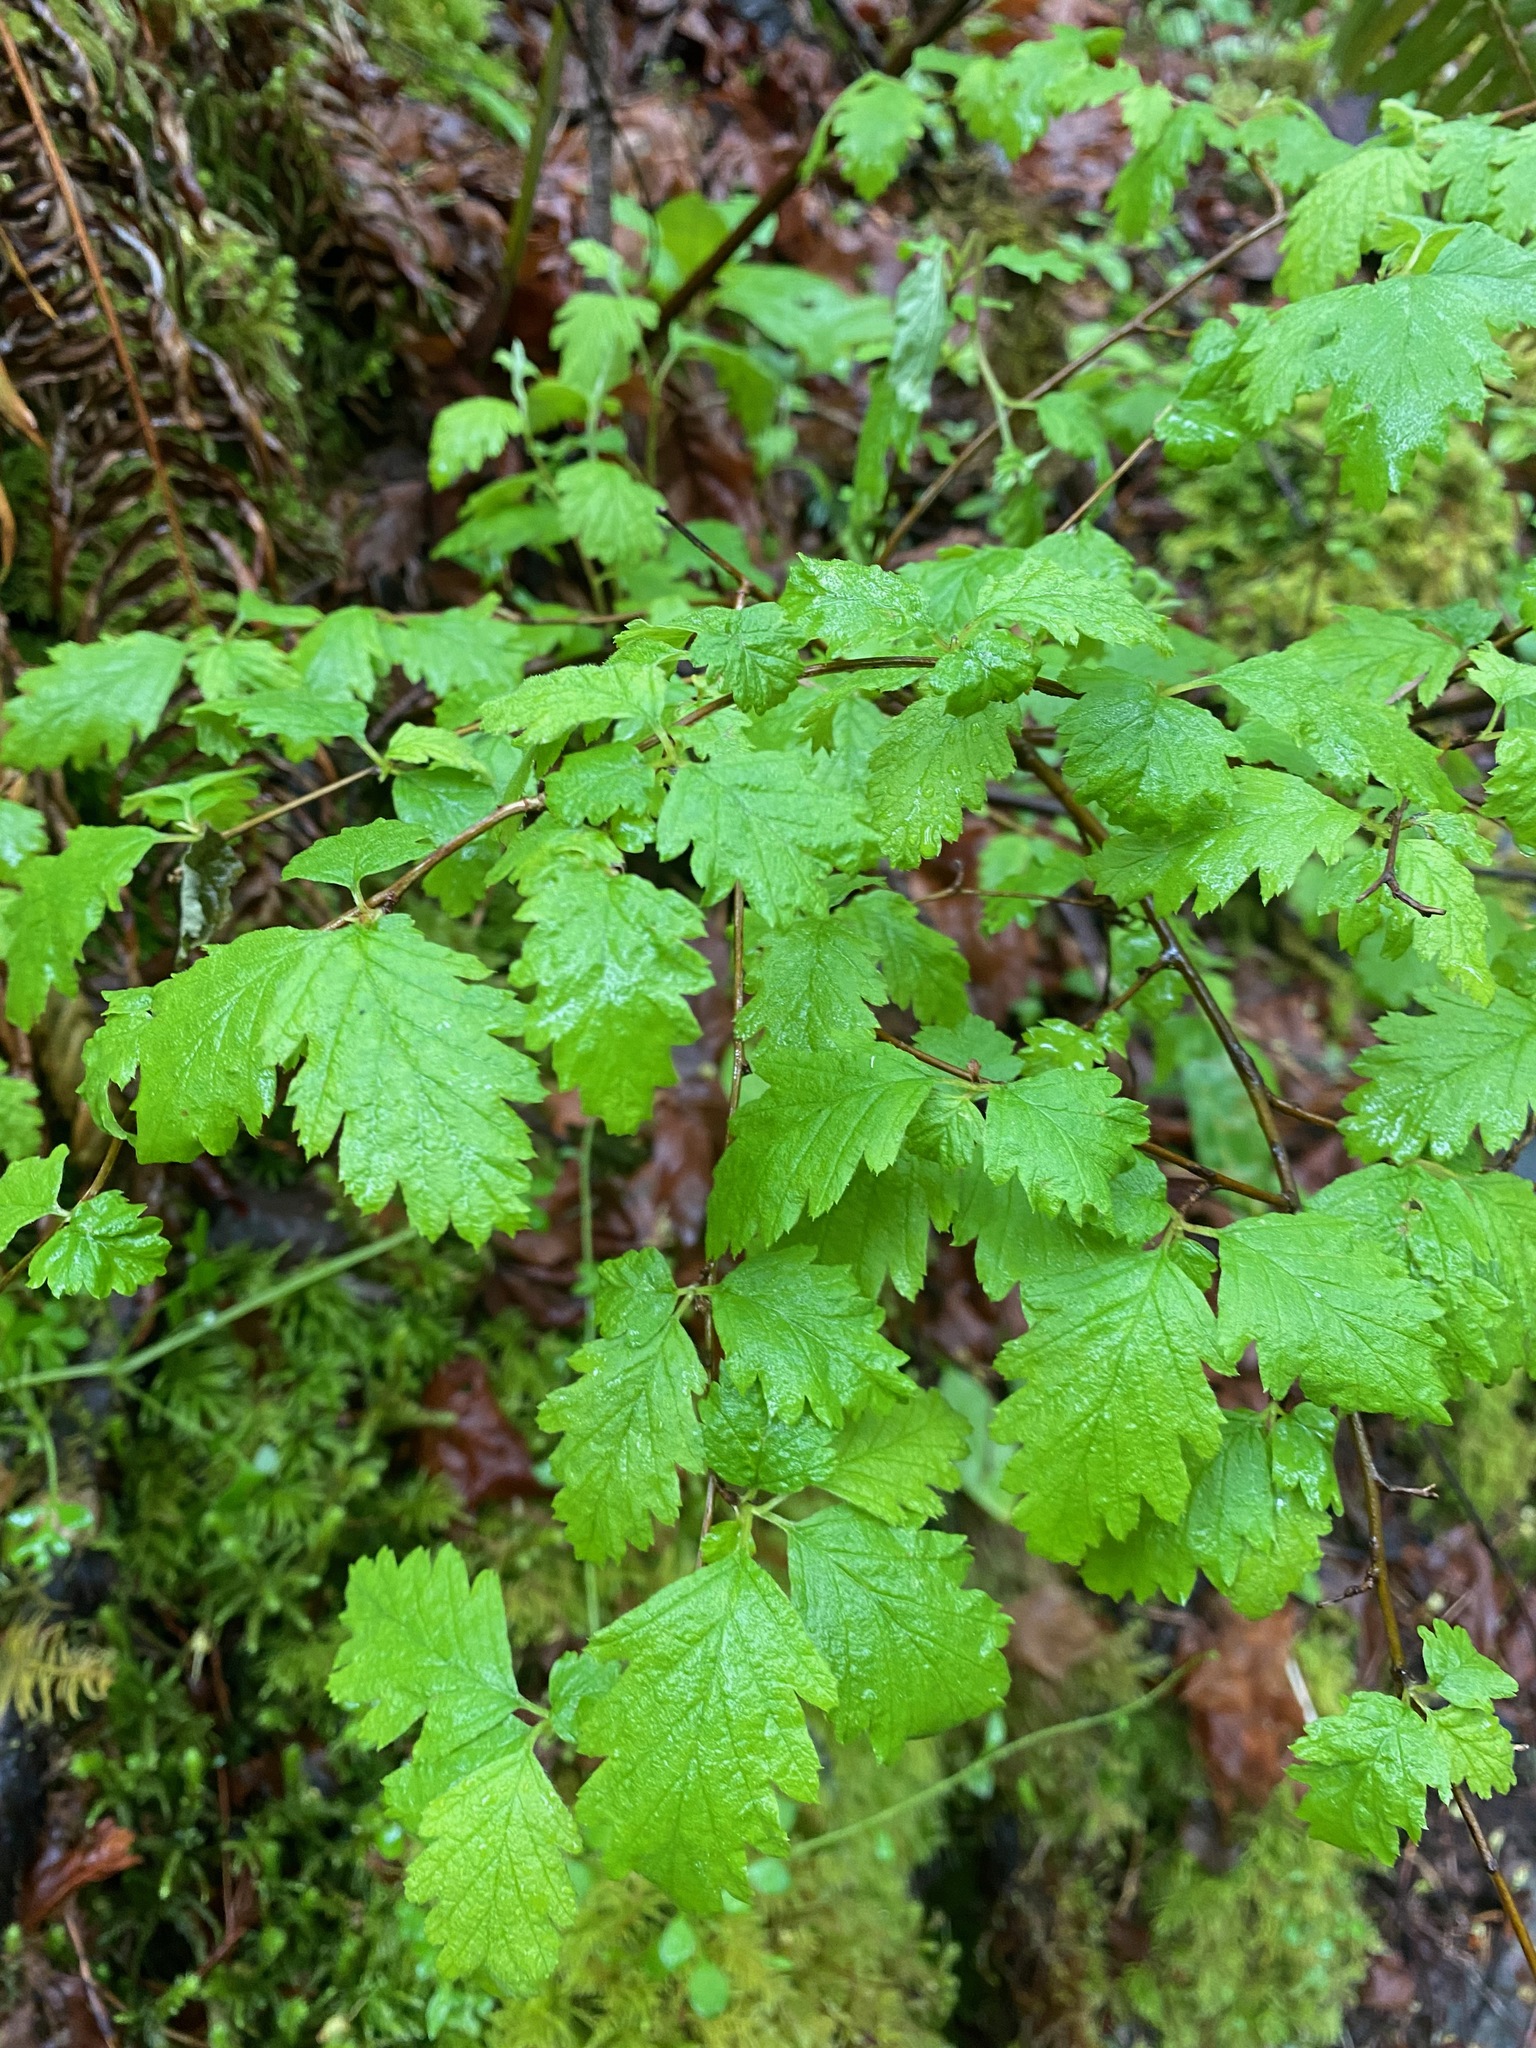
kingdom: Plantae
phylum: Tracheophyta
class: Magnoliopsida
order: Rosales
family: Rosaceae
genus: Holodiscus
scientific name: Holodiscus discolor
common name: Oceanspray
